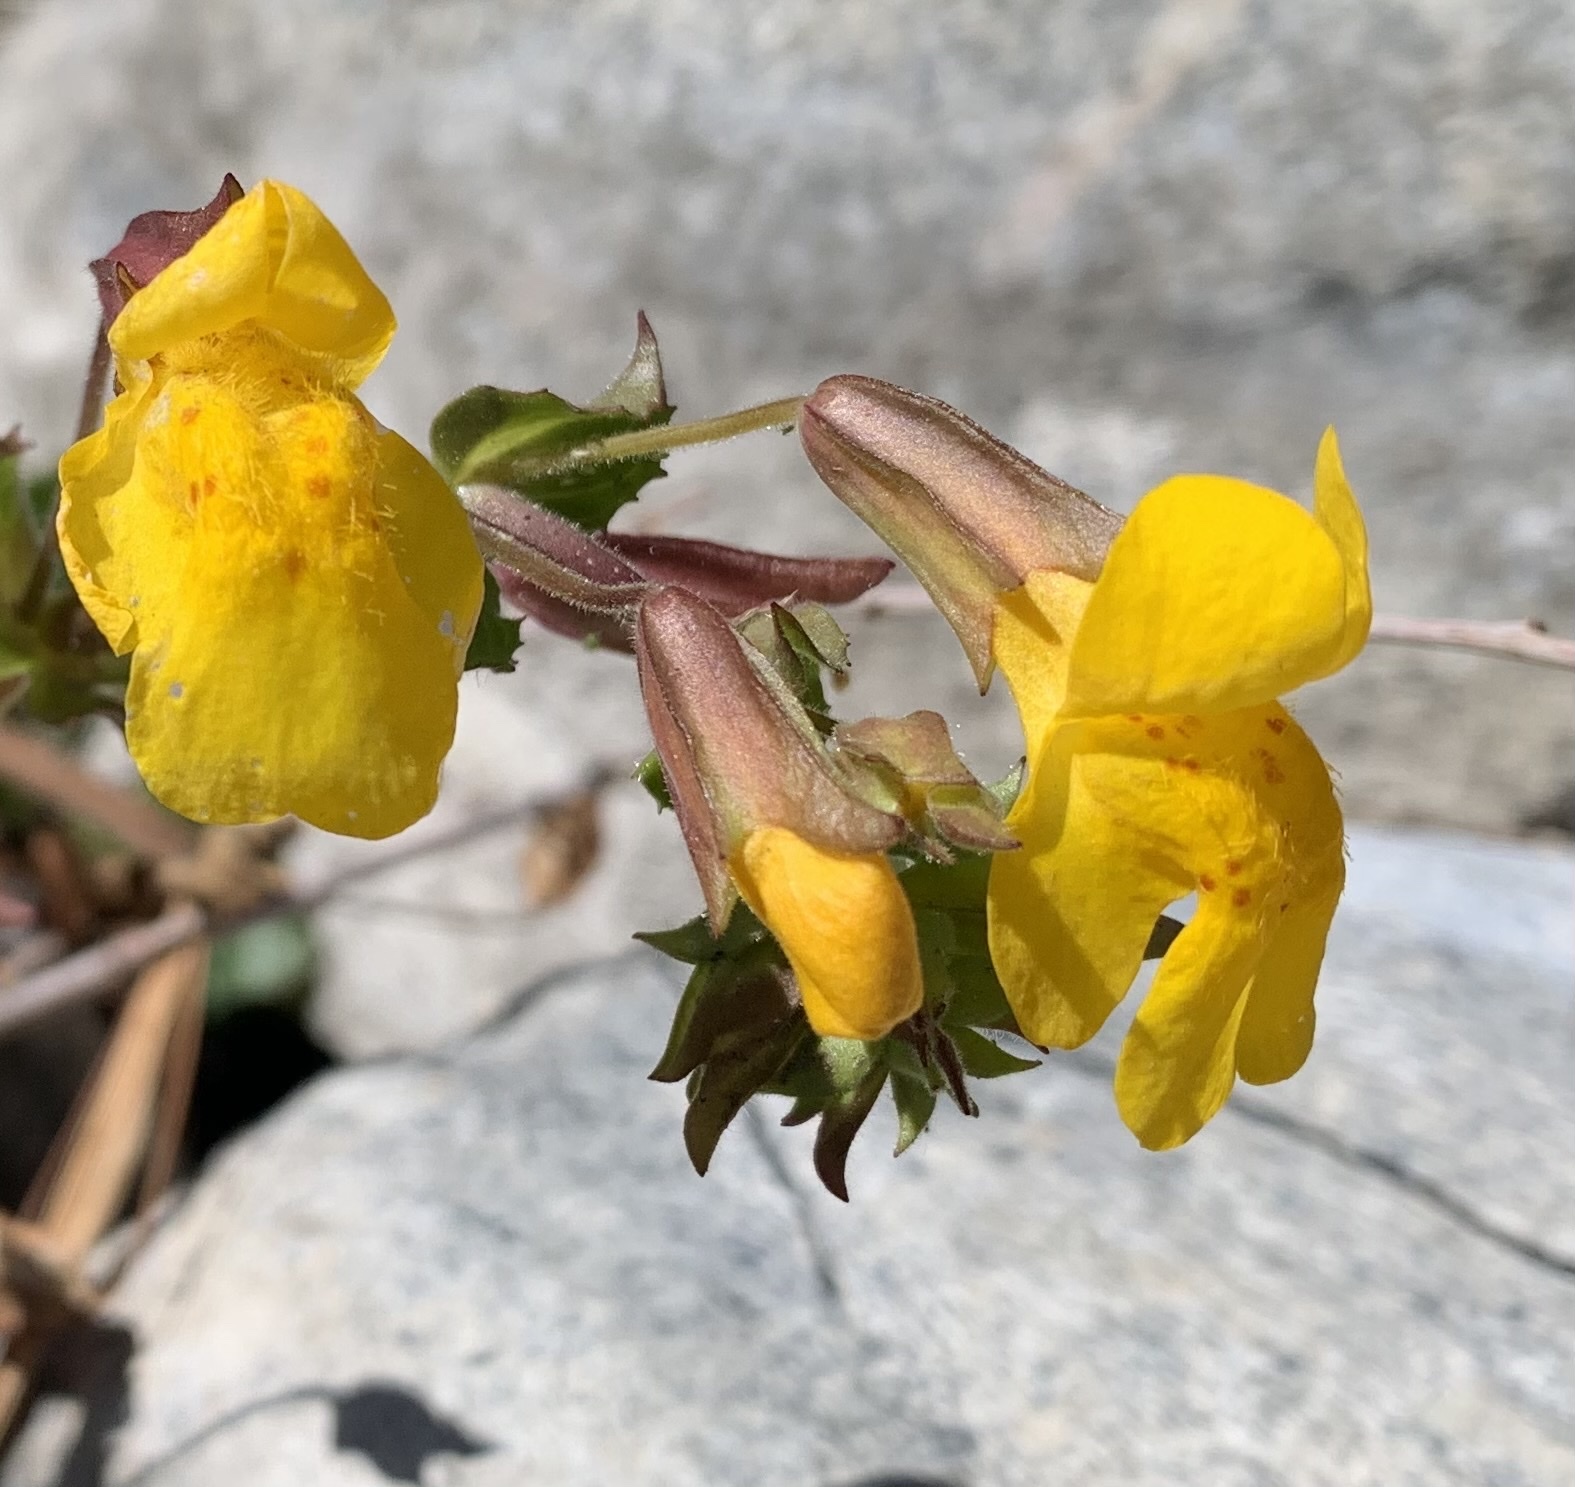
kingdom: Plantae
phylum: Tracheophyta
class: Magnoliopsida
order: Lamiales
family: Phrymaceae
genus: Erythranthe
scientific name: Erythranthe guttata
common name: Monkeyflower
